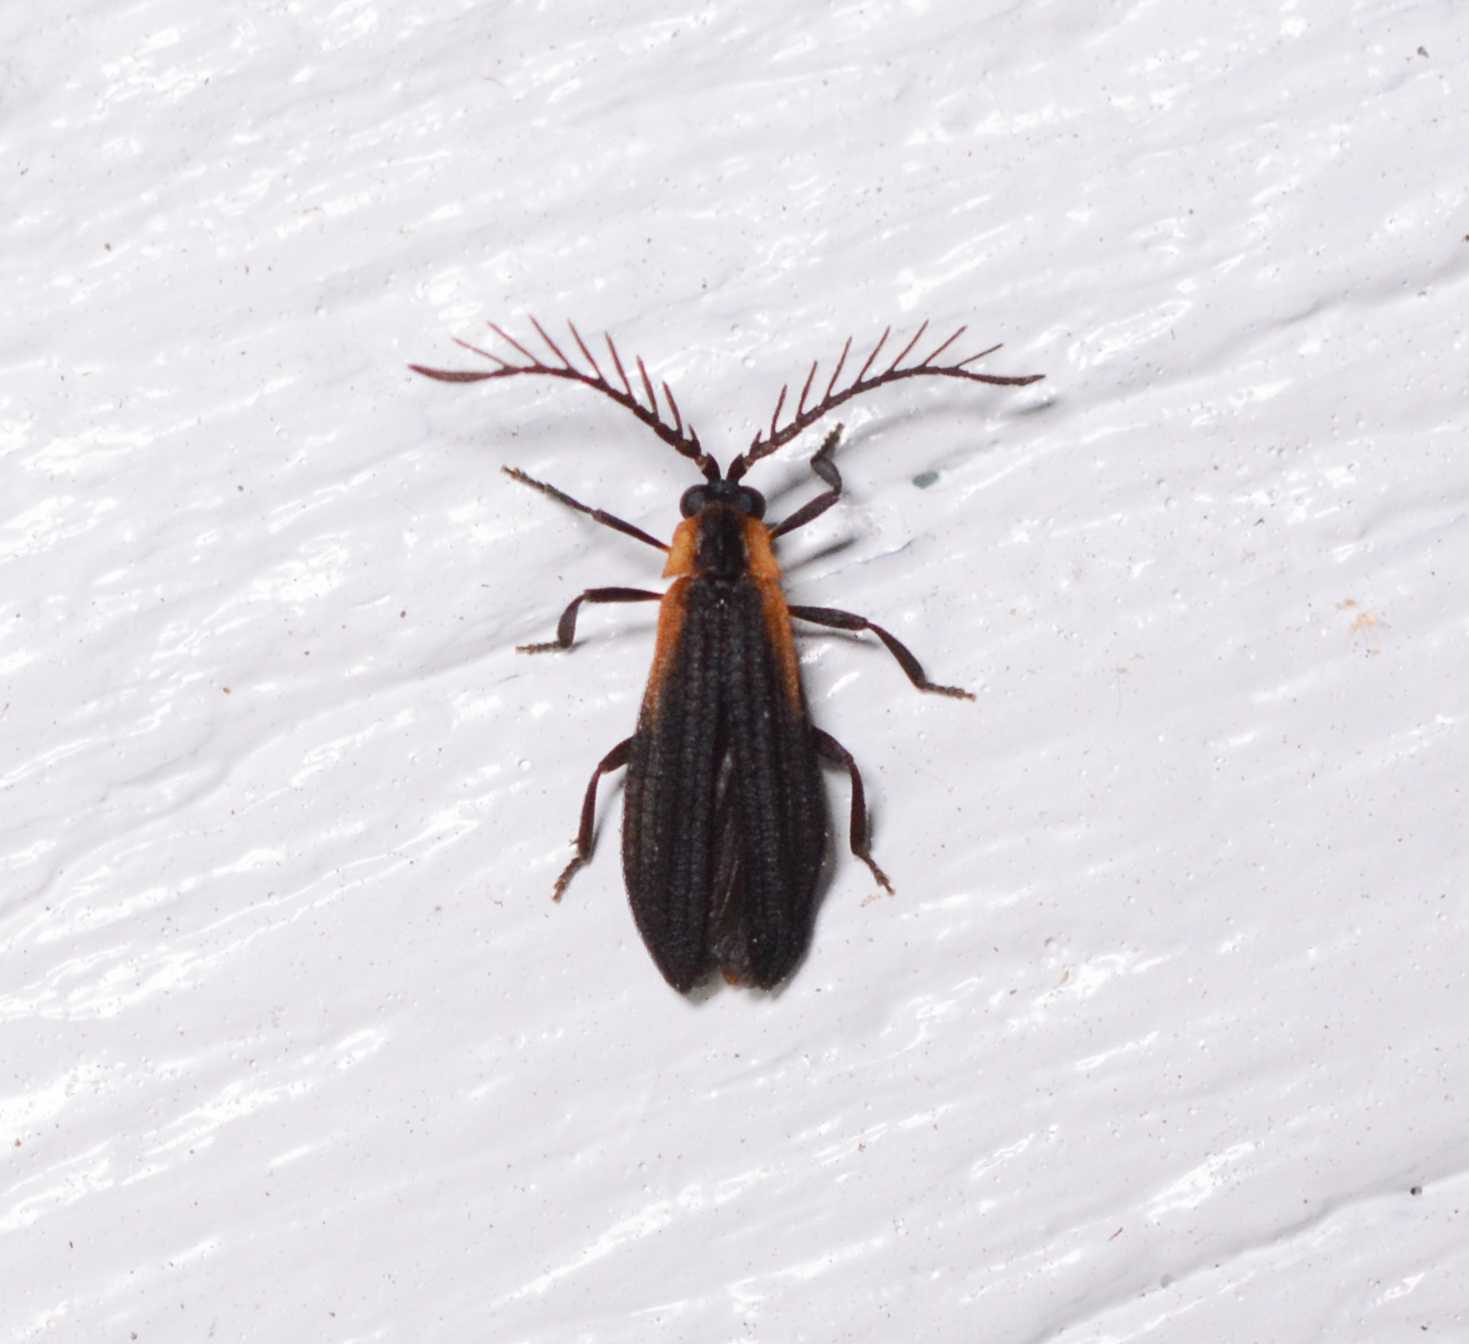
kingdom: Animalia
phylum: Arthropoda
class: Insecta
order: Coleoptera
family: Lycidae
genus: Leptoceletes
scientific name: Leptoceletes basalis
